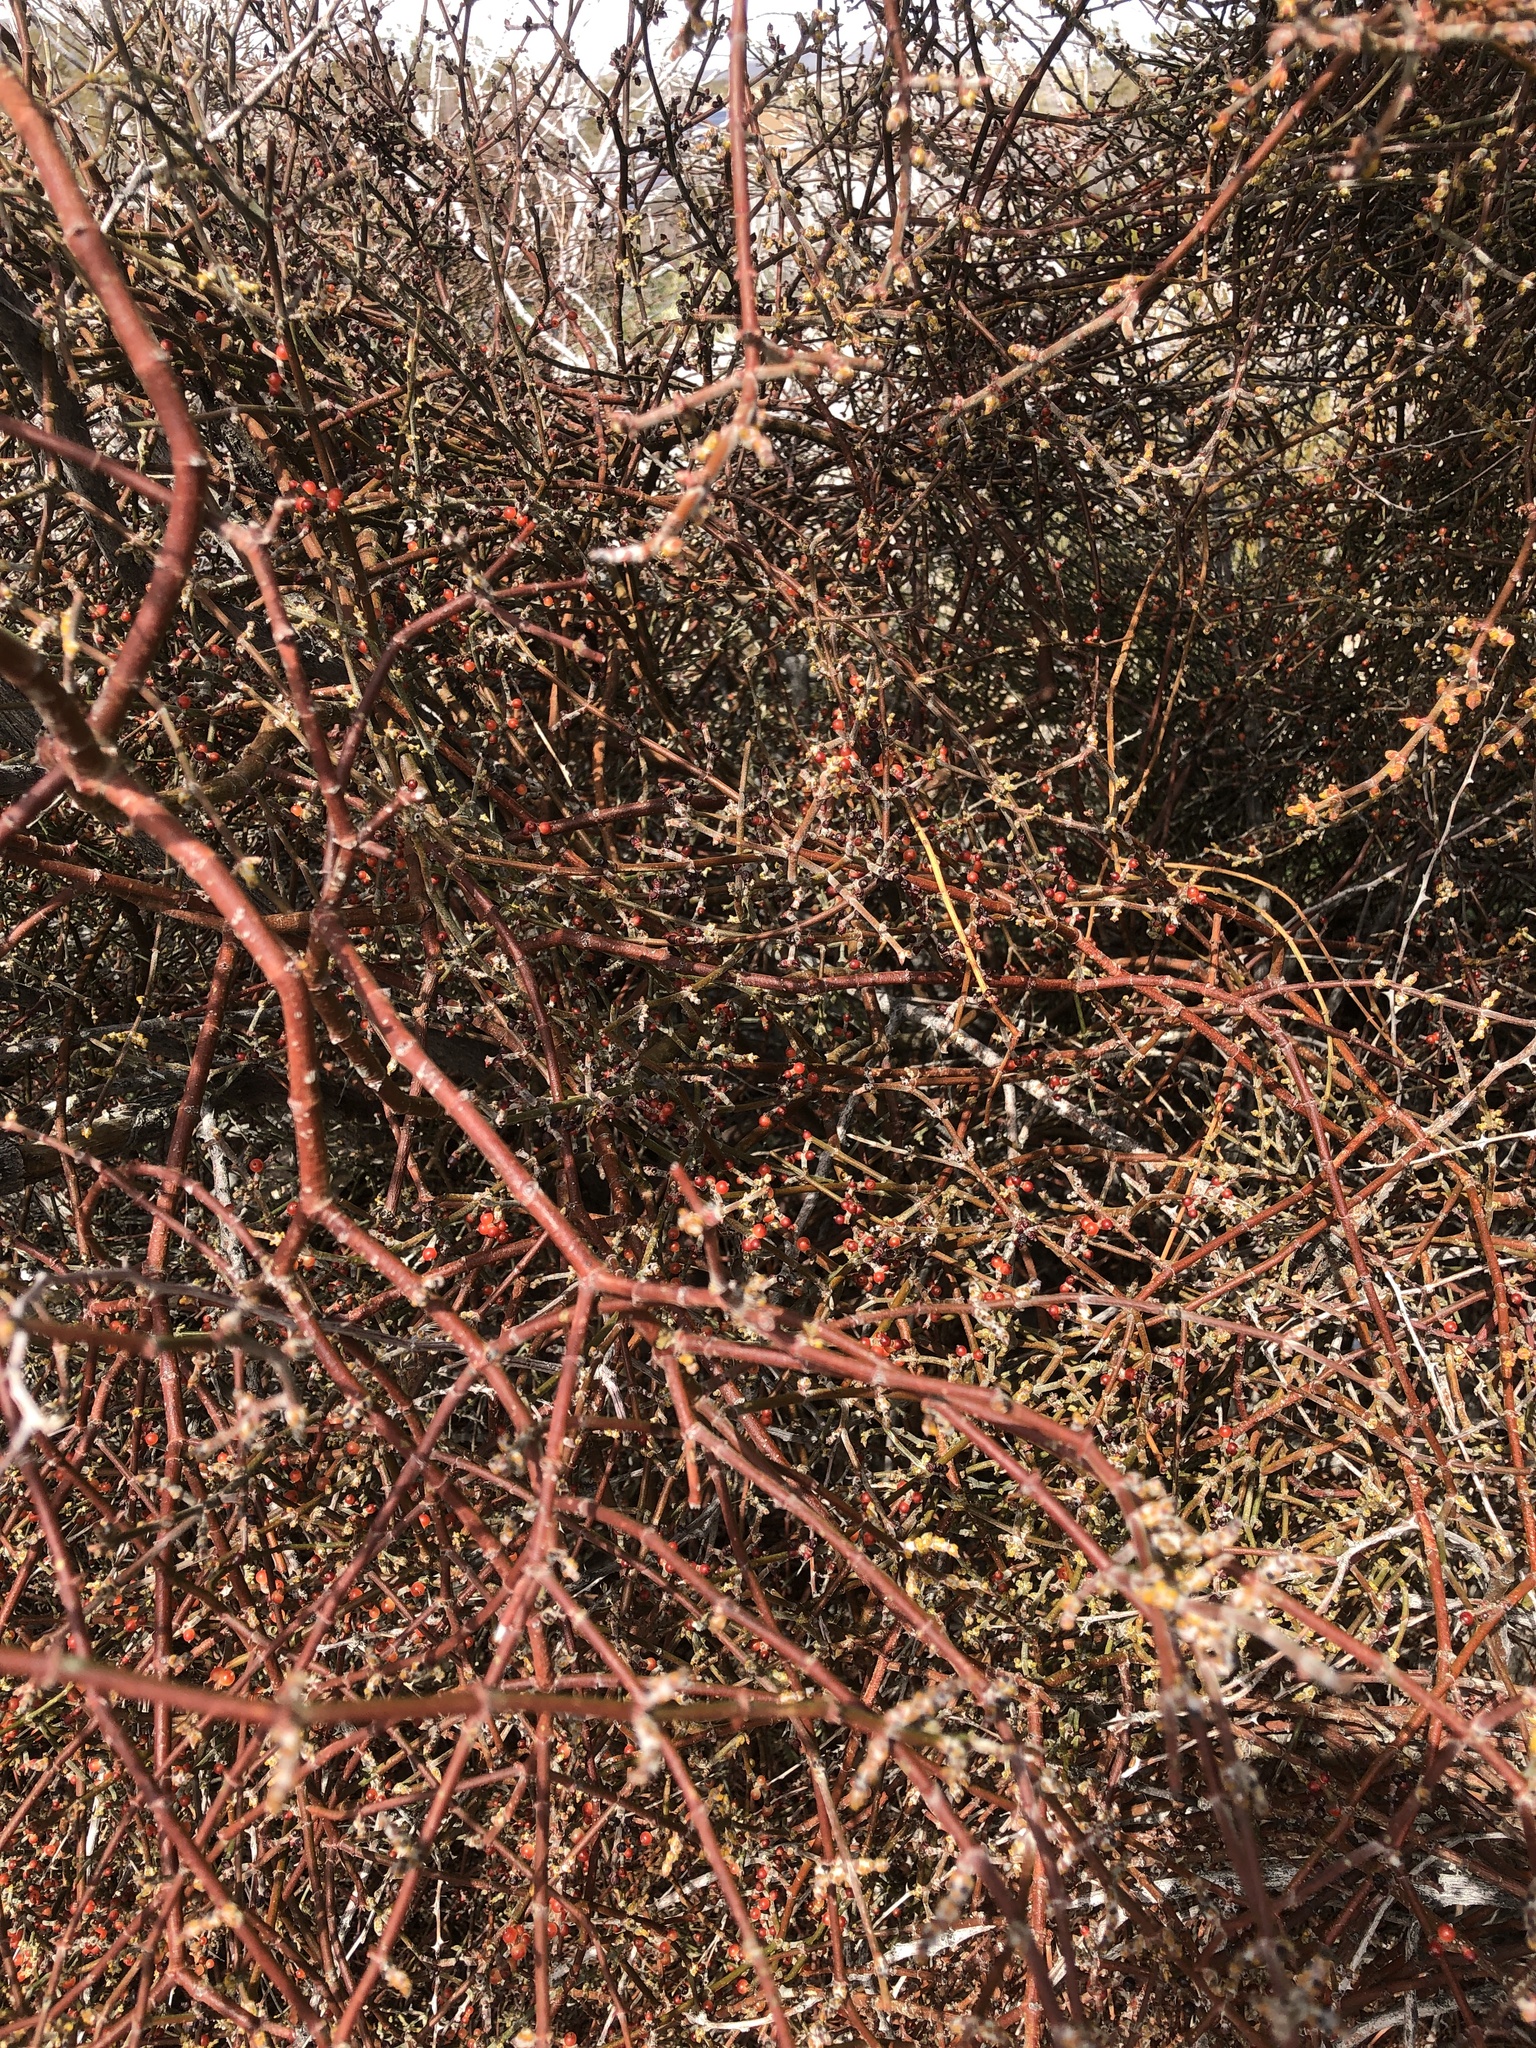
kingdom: Plantae
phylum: Tracheophyta
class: Magnoliopsida
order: Santalales
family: Viscaceae
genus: Phoradendron
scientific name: Phoradendron californicum
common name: Acacia mistletoe
